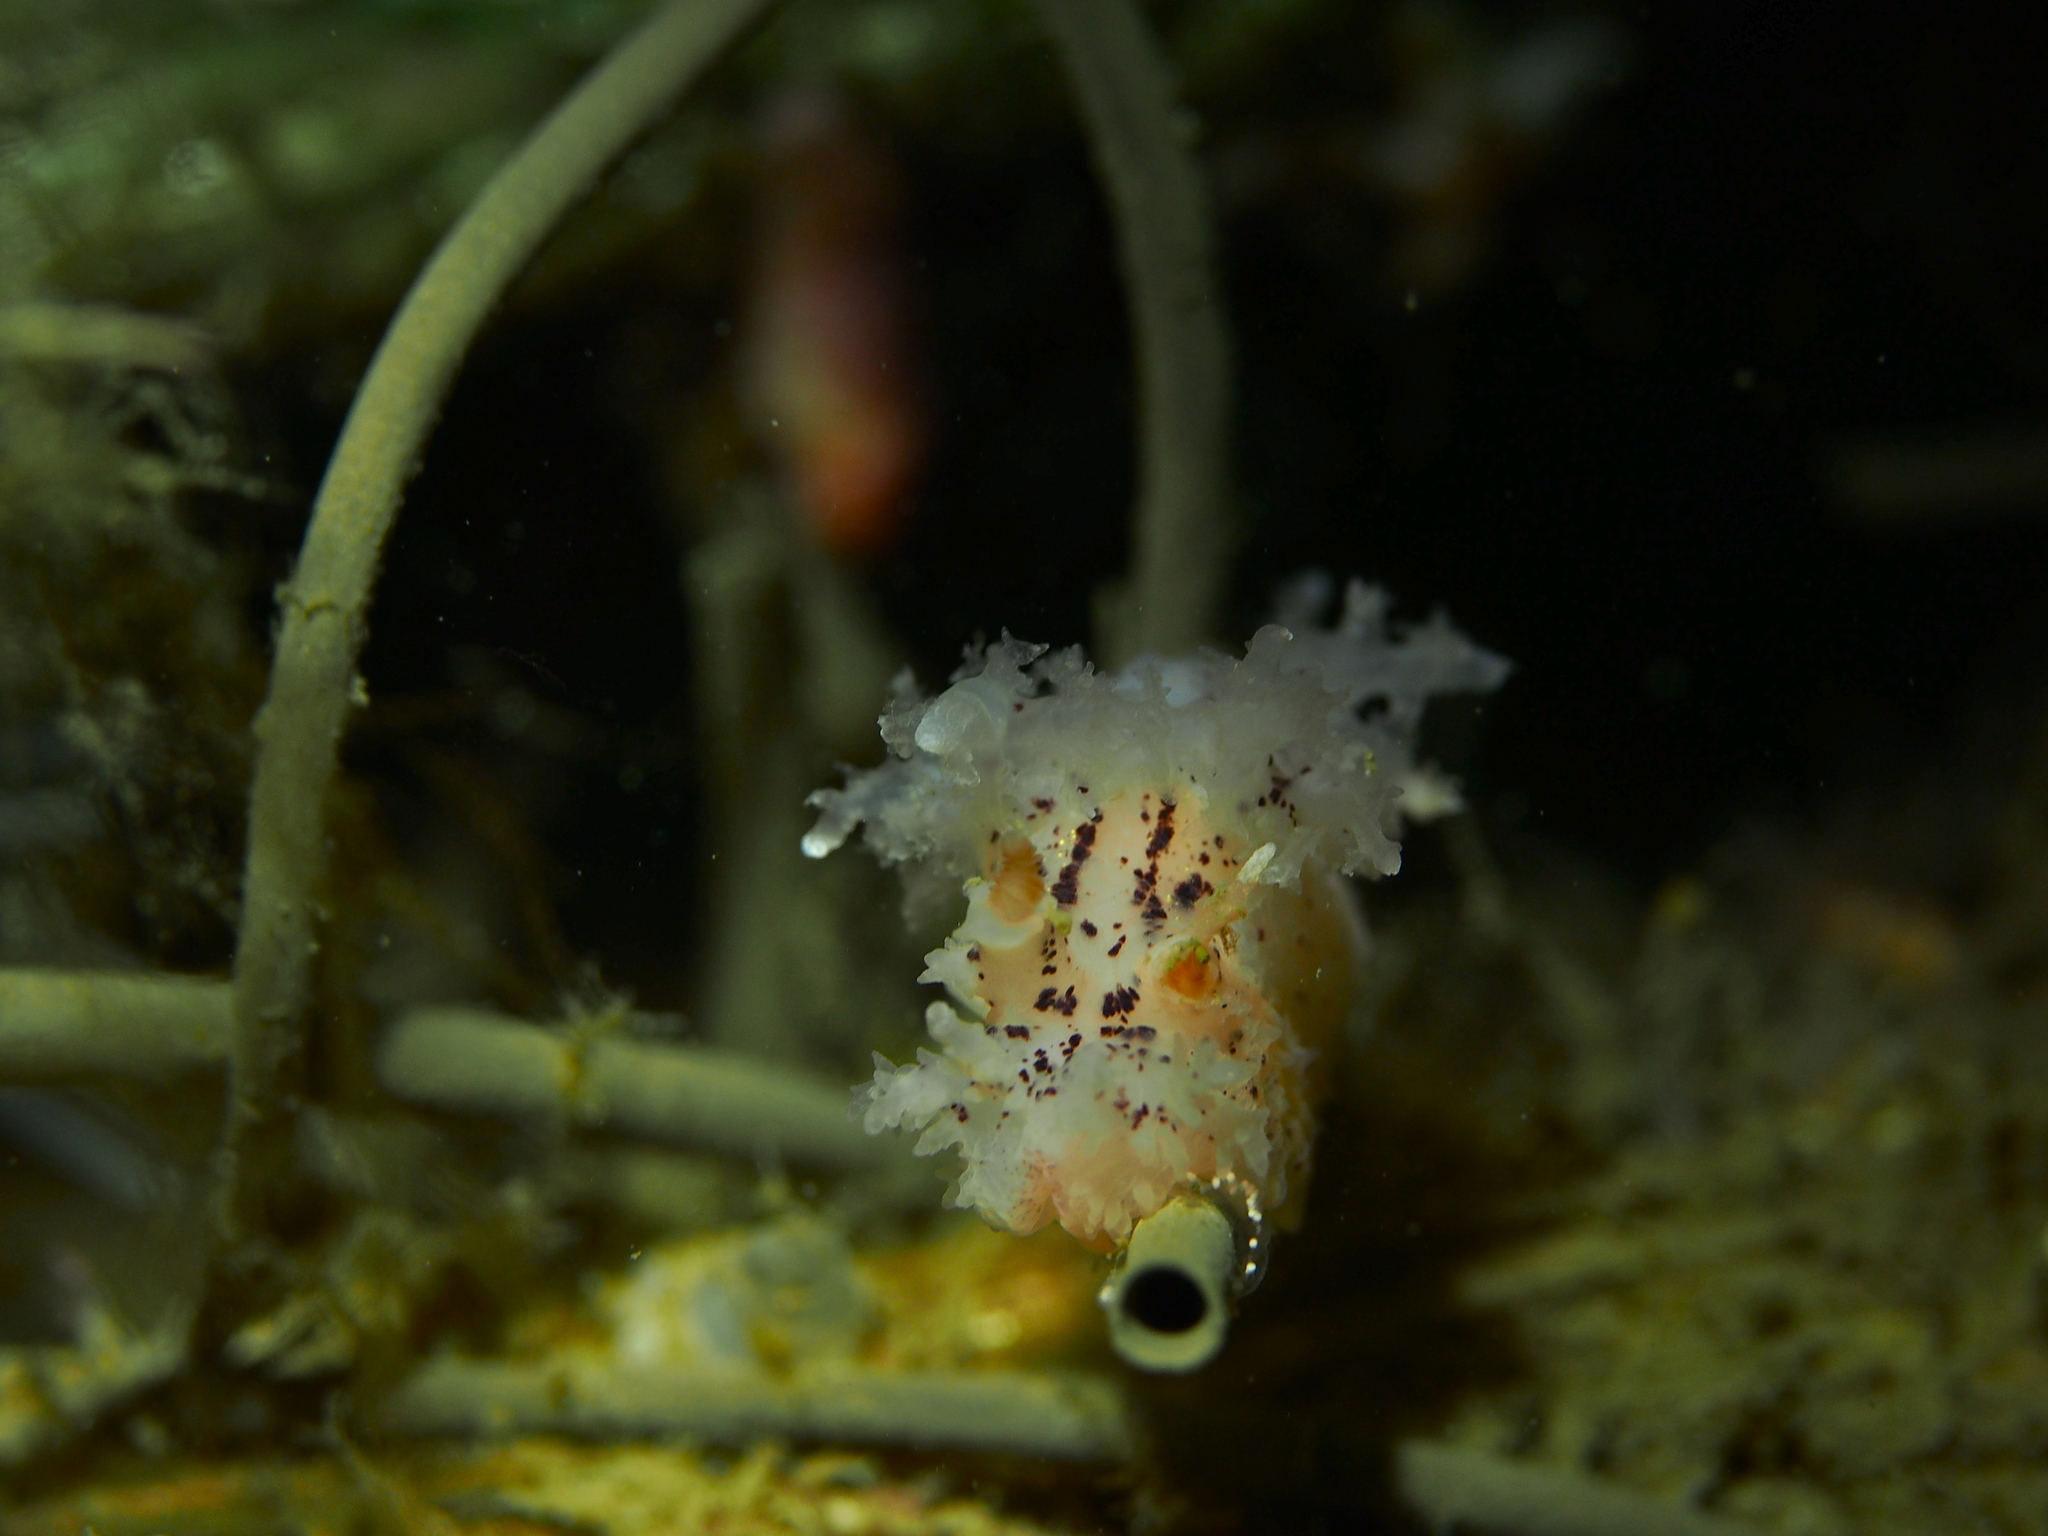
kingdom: Animalia
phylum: Mollusca
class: Gastropoda
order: Nudibranchia
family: Dendronotidae
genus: Dendronotus
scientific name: Dendronotus lacteus
